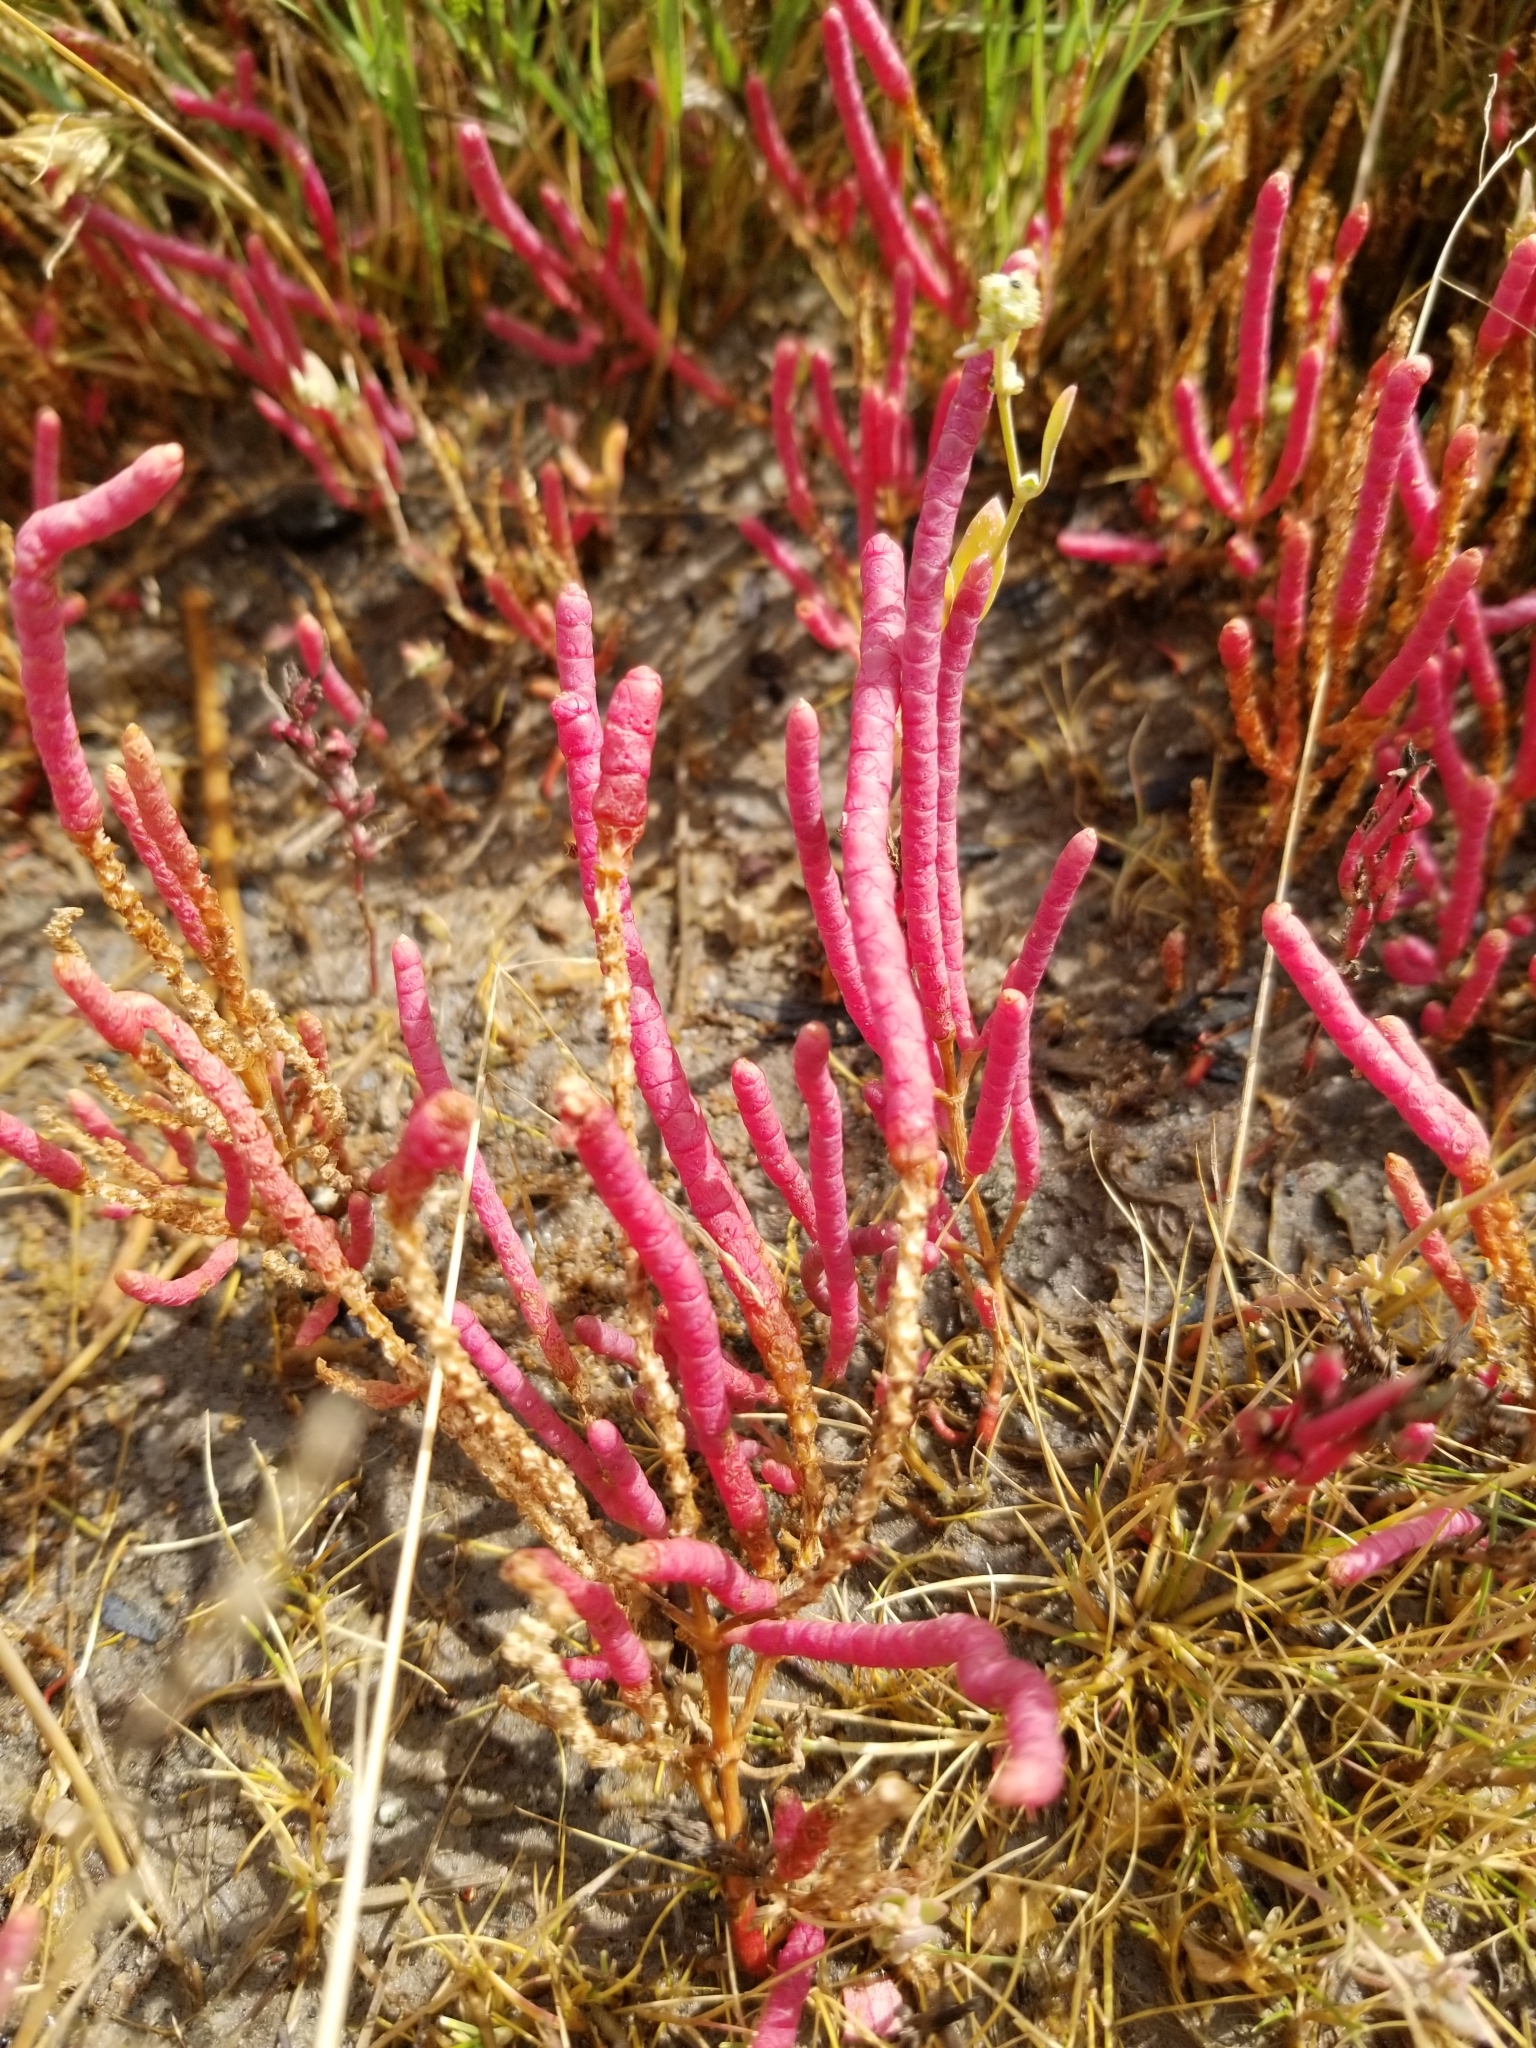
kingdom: Plantae
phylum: Tracheophyta
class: Magnoliopsida
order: Caryophyllales
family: Amaranthaceae
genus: Salicornia
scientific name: Salicornia rubra
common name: Red glasswort
